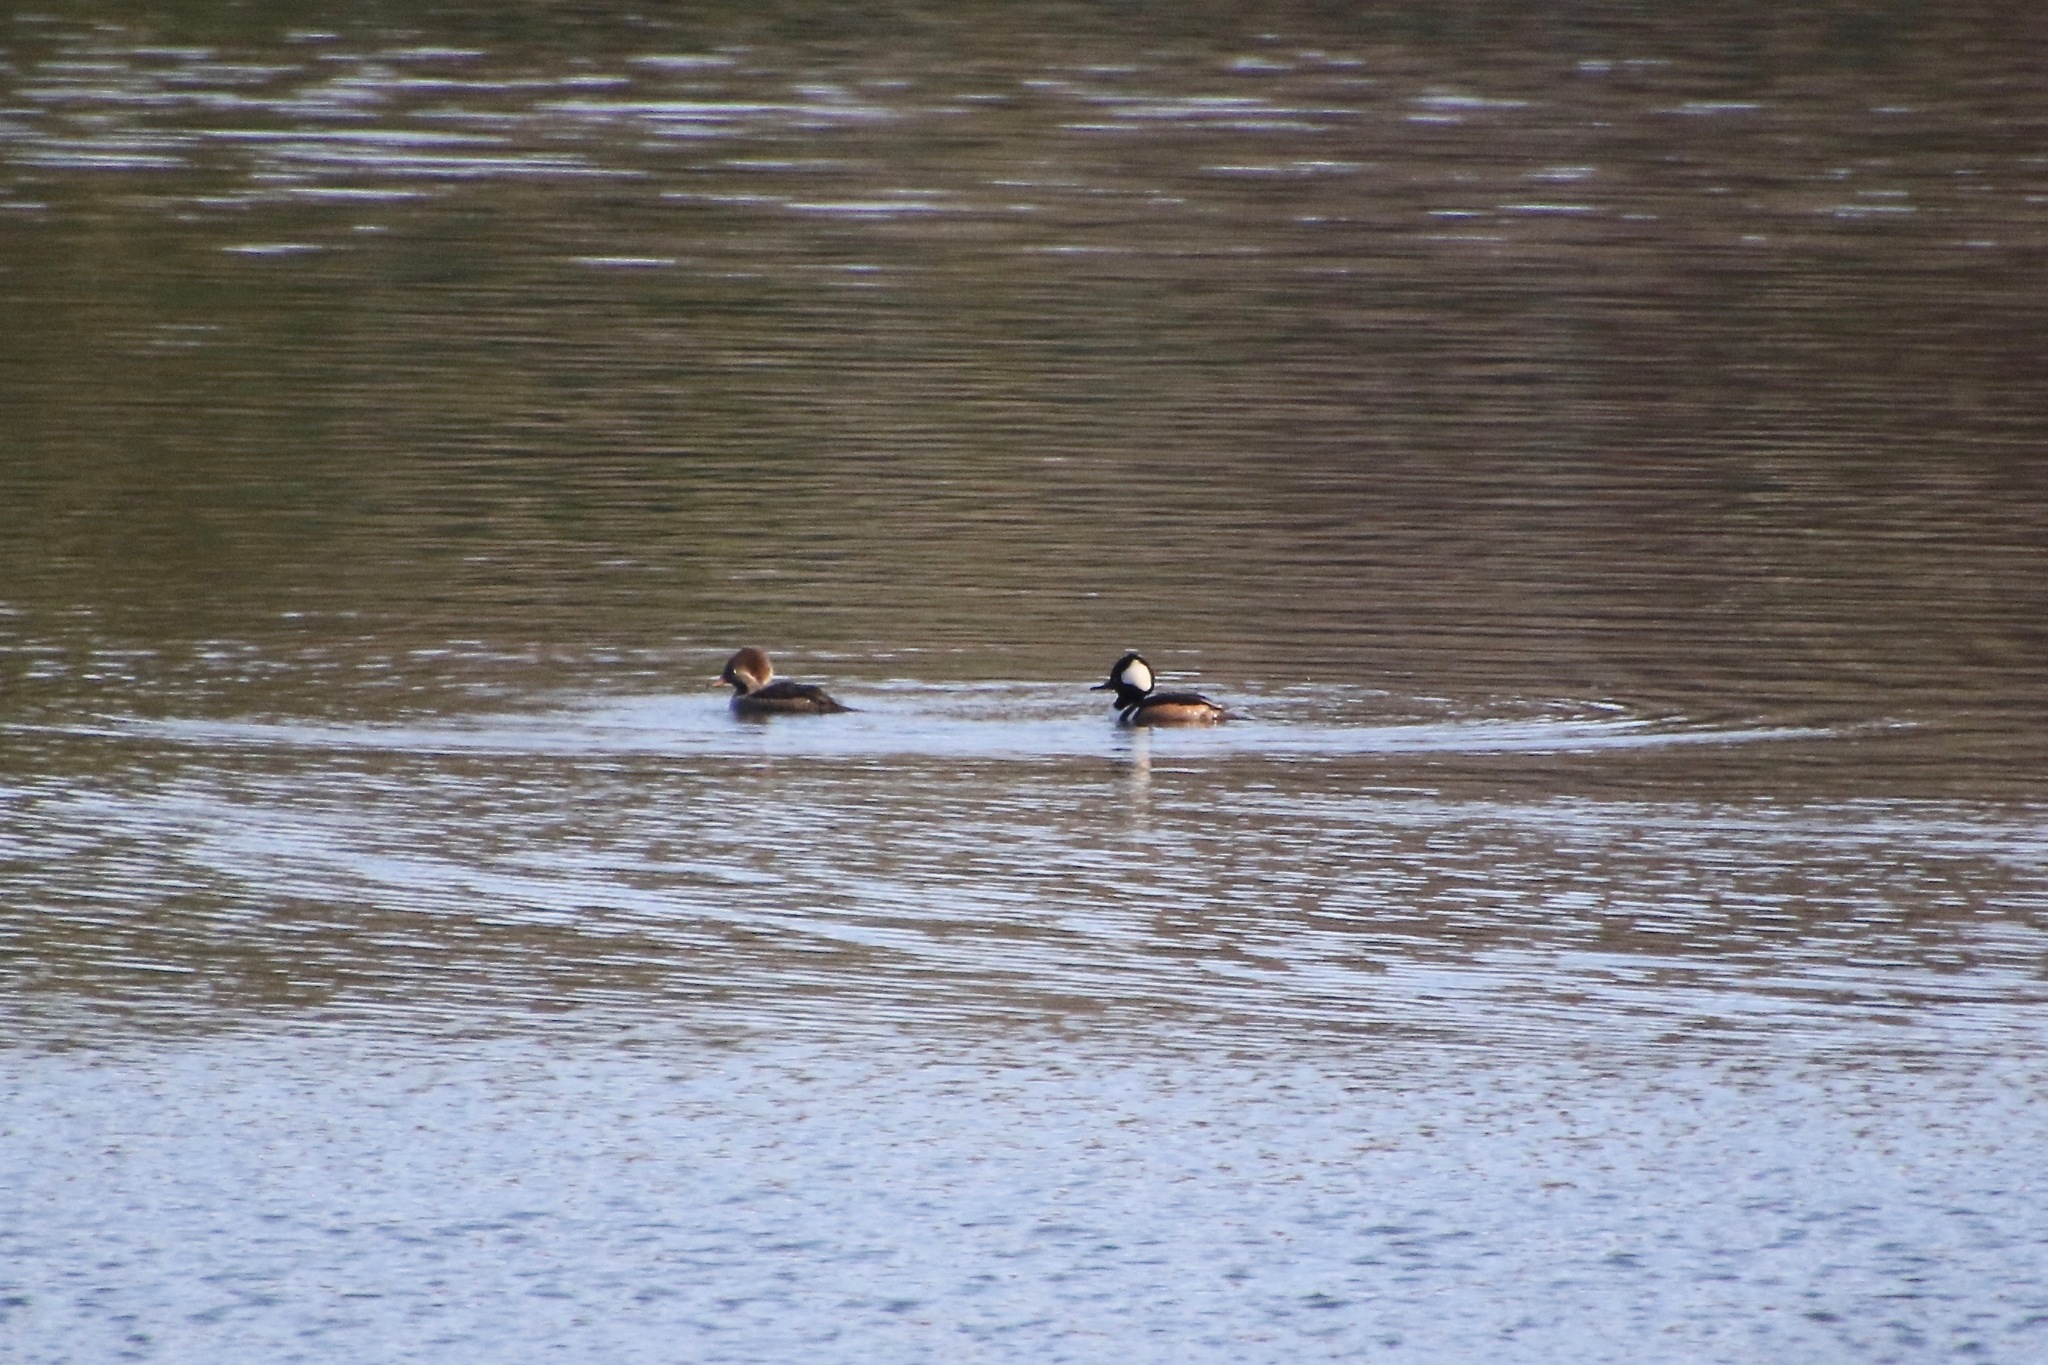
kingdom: Animalia
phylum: Chordata
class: Aves
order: Anseriformes
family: Anatidae
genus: Lophodytes
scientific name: Lophodytes cucullatus
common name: Hooded merganser
